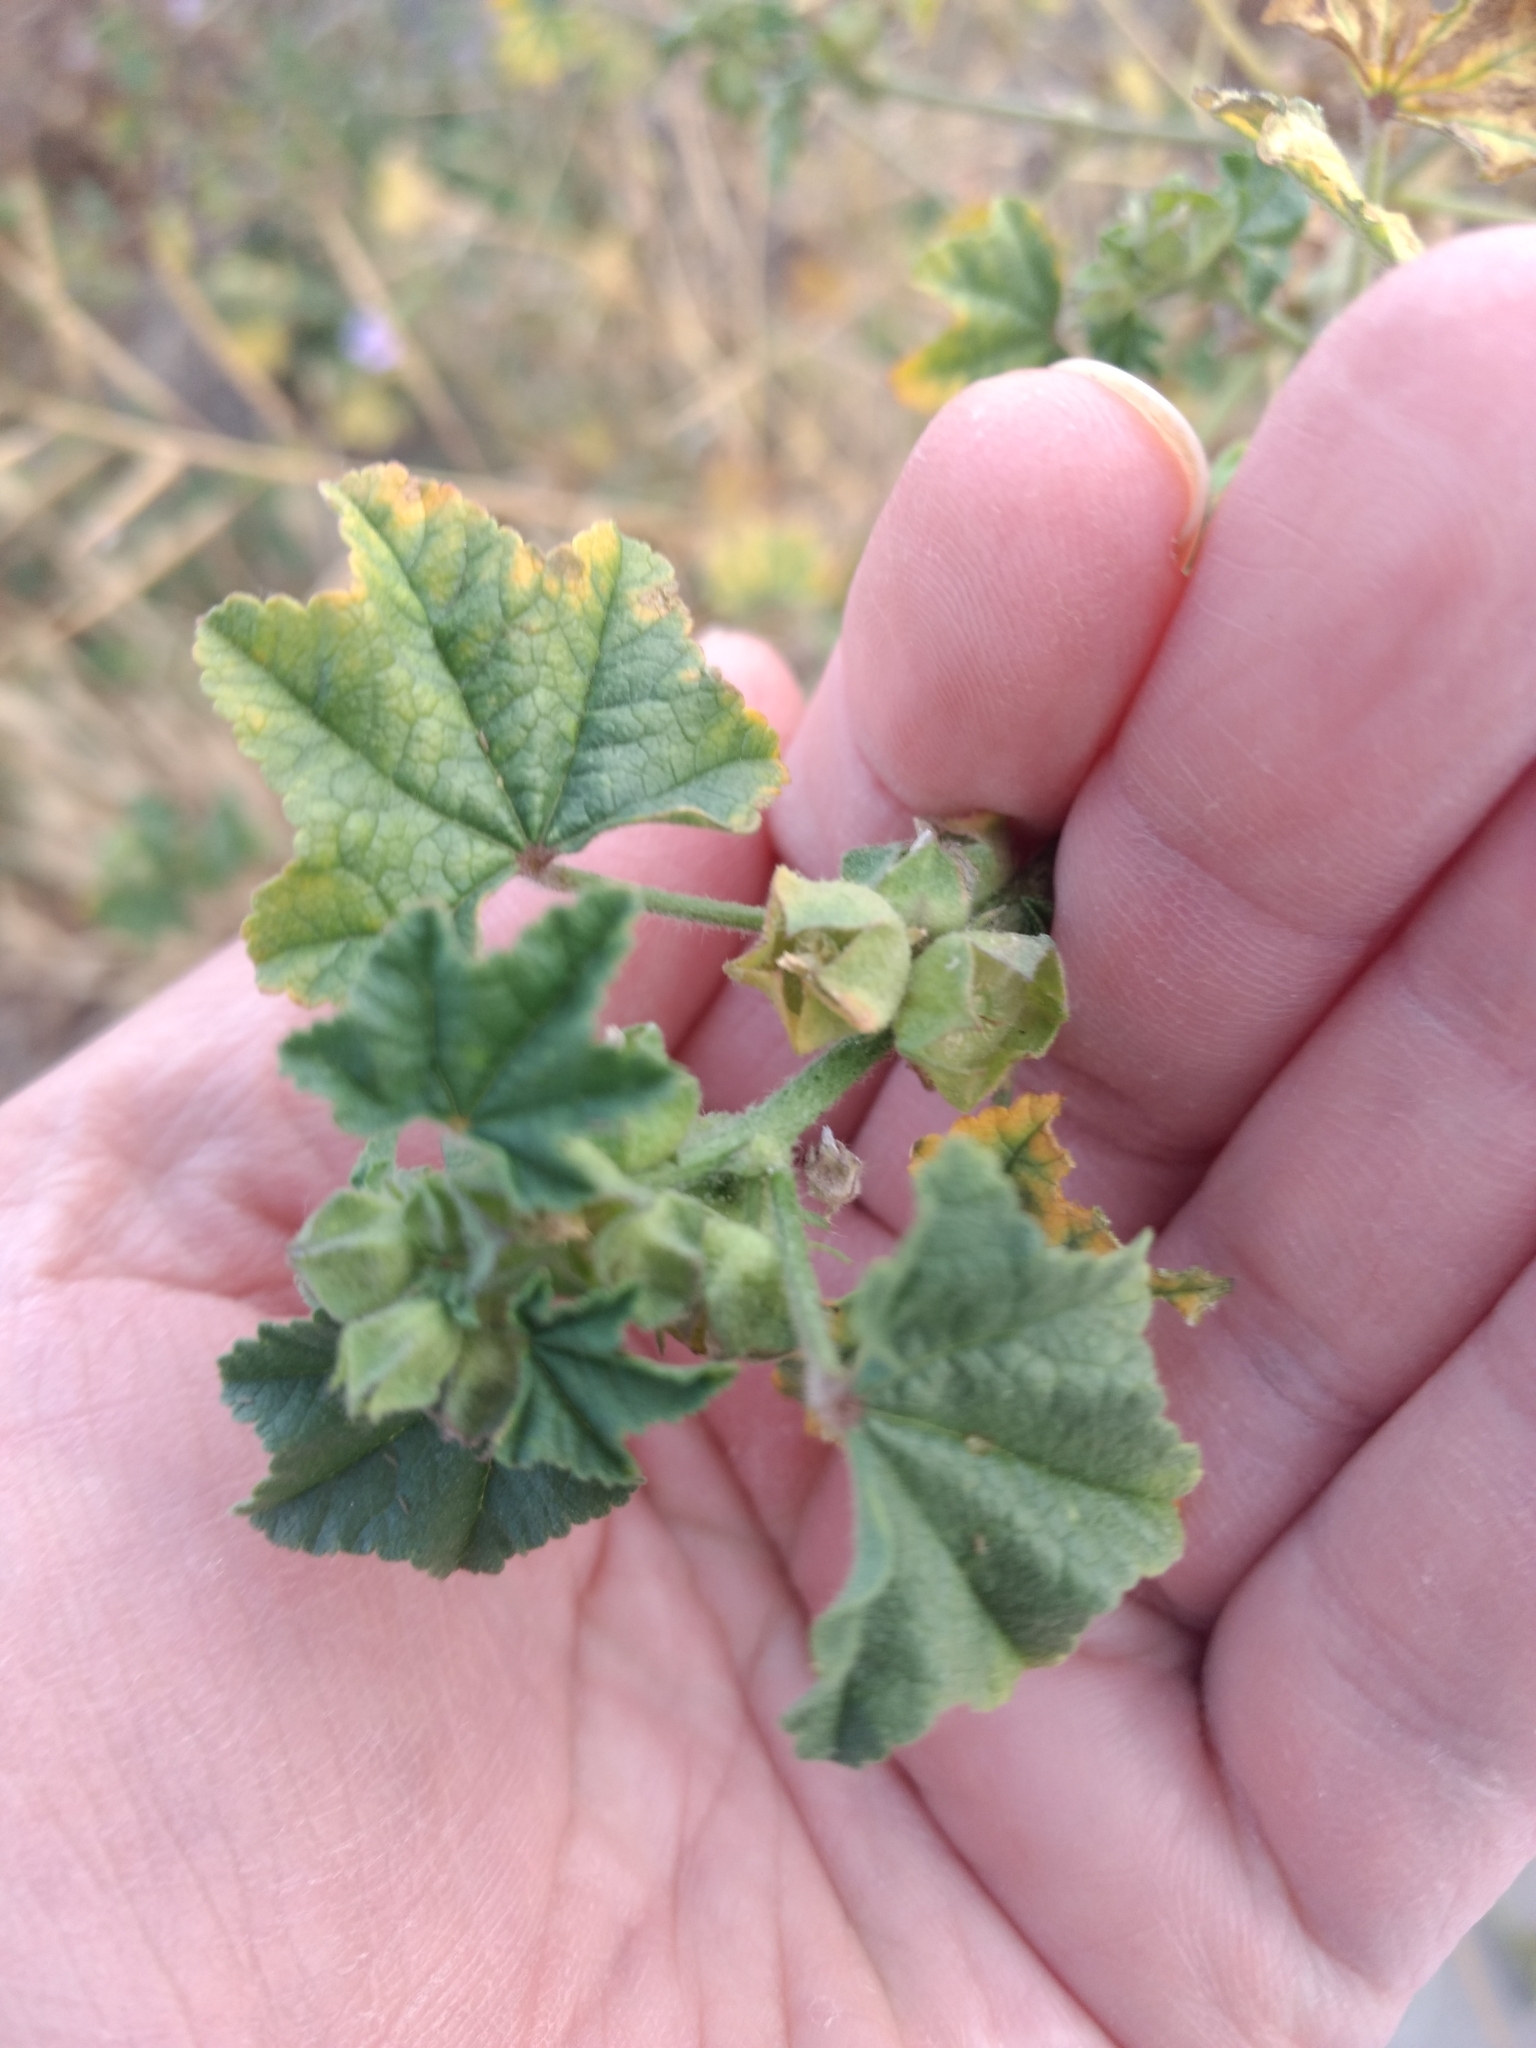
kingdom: Plantae
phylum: Tracheophyta
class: Magnoliopsida
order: Malvales
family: Malvaceae
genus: Malva
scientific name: Malva parviflora
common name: Least mallow
